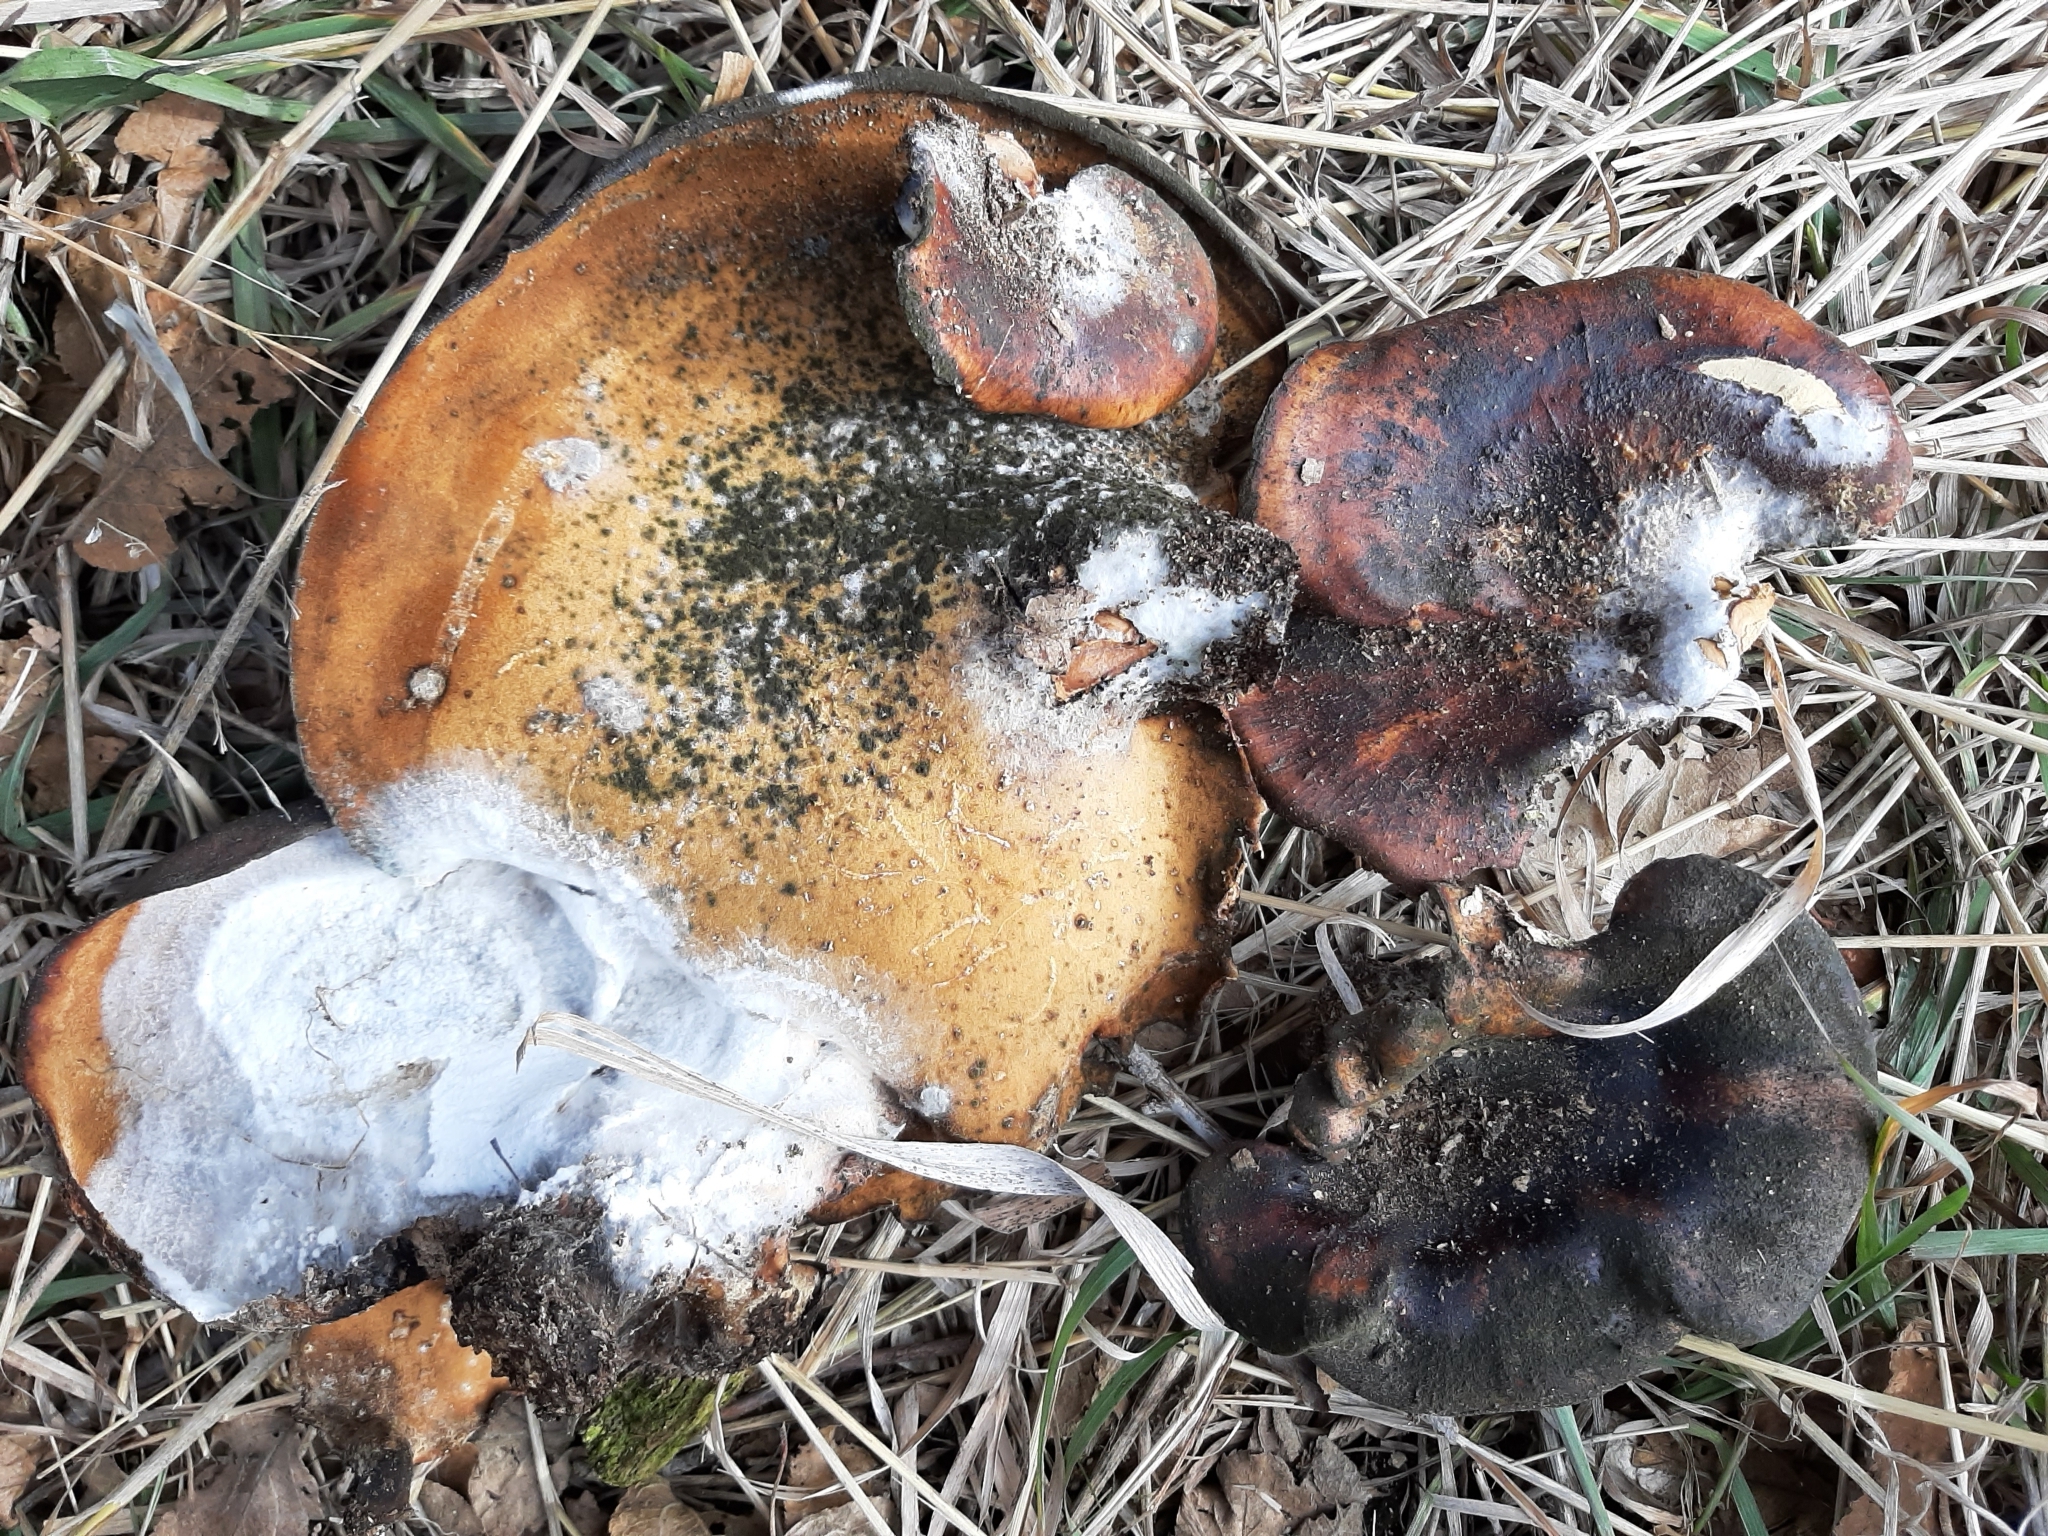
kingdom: Fungi
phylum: Basidiomycota
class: Agaricomycetes
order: Polyporales
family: Polyporaceae
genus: Picipes
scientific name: Picipes badius
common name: Bay polypore
